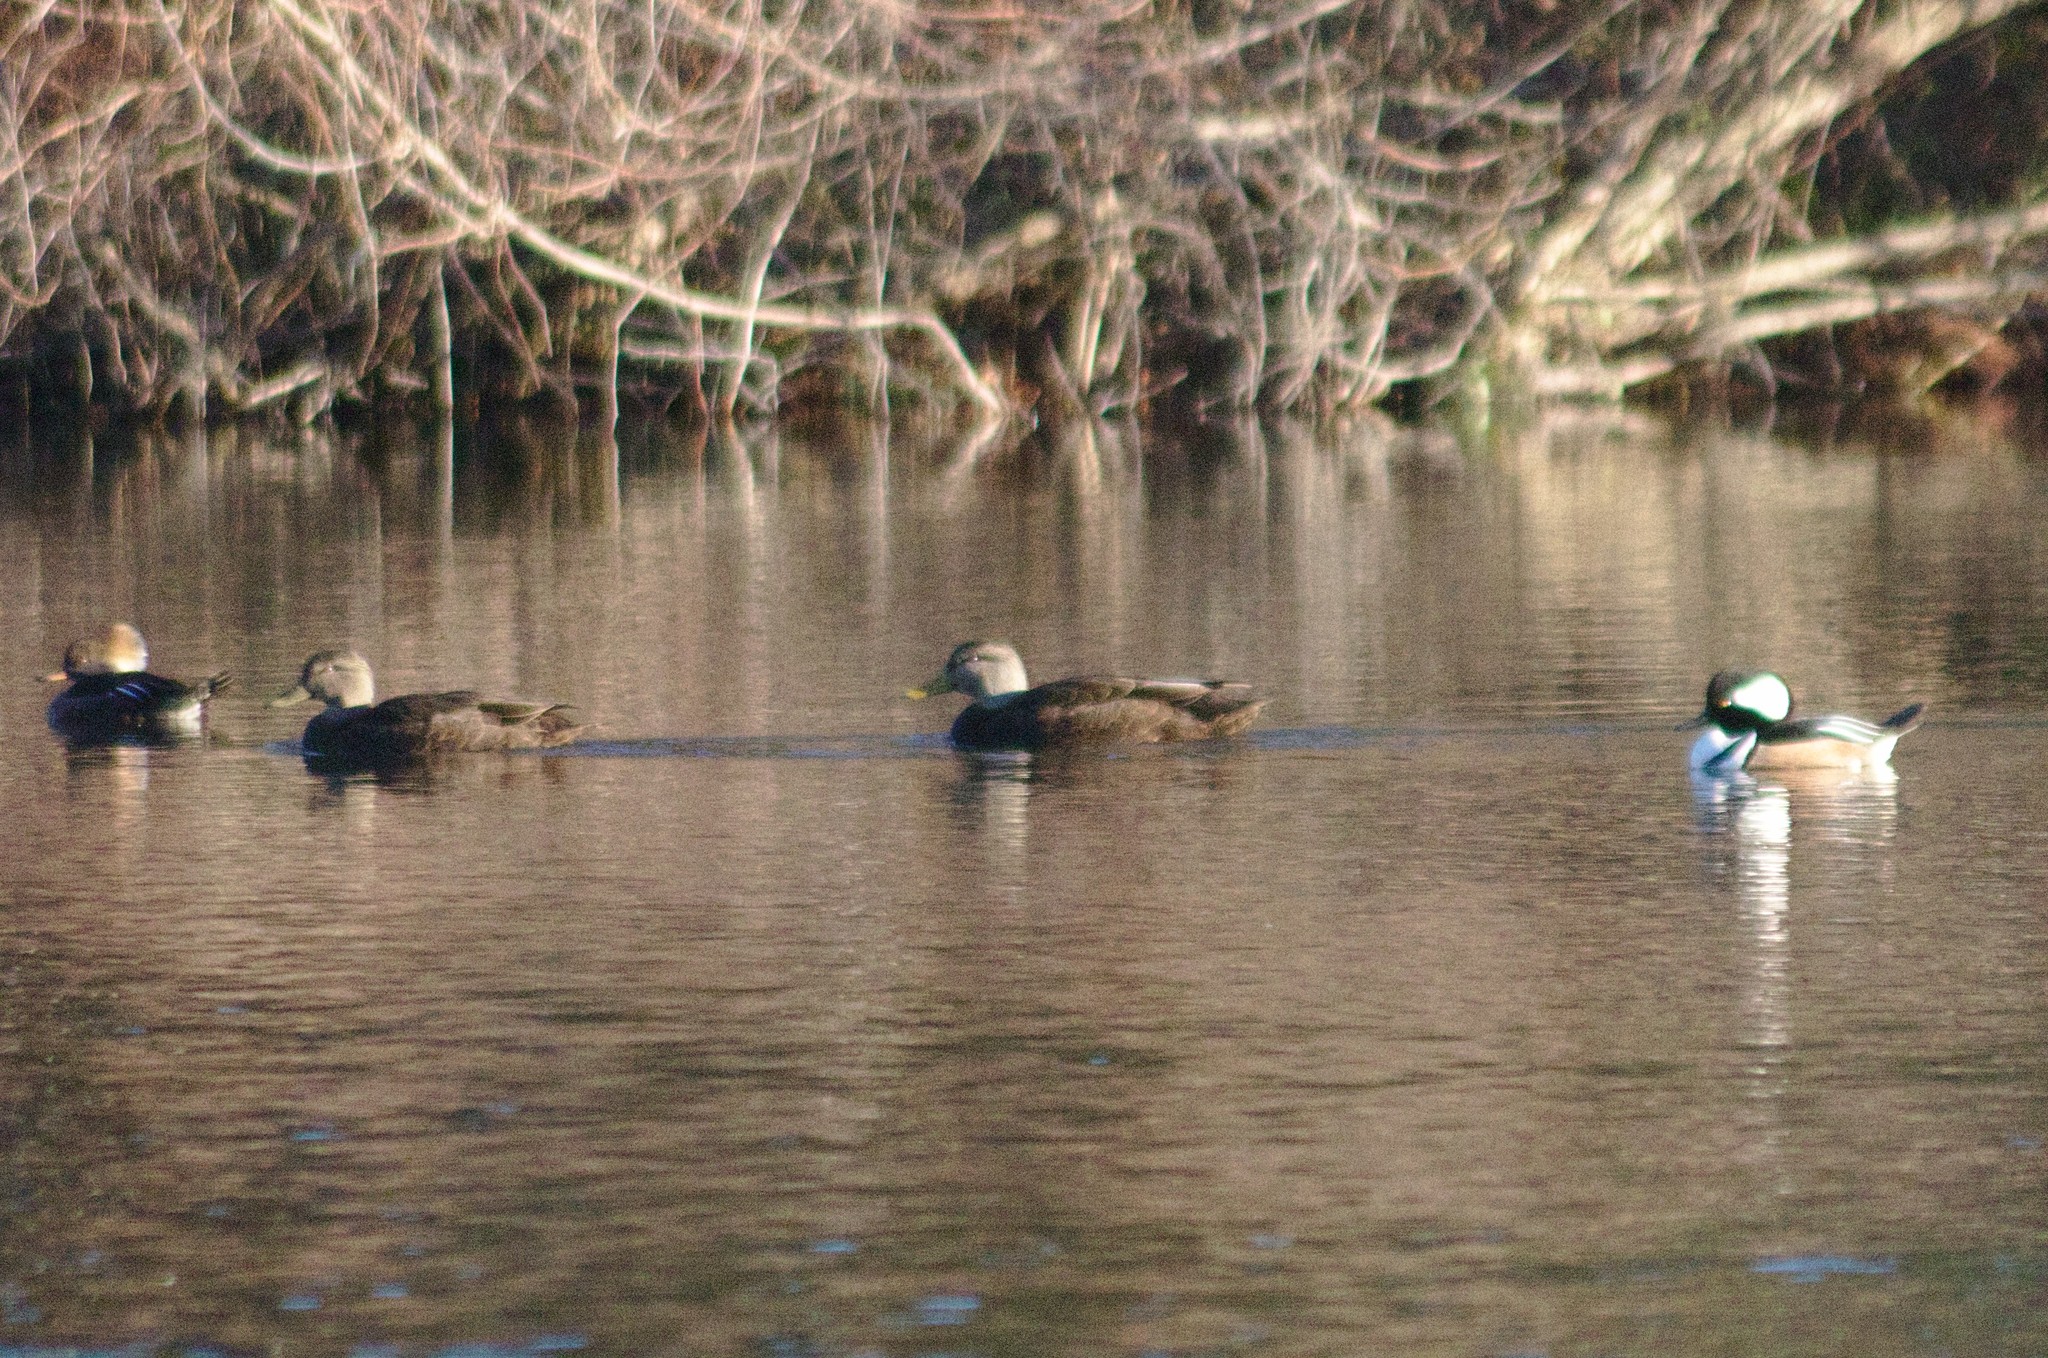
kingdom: Animalia
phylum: Chordata
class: Aves
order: Anseriformes
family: Anatidae
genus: Anas
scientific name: Anas rubripes
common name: American black duck
